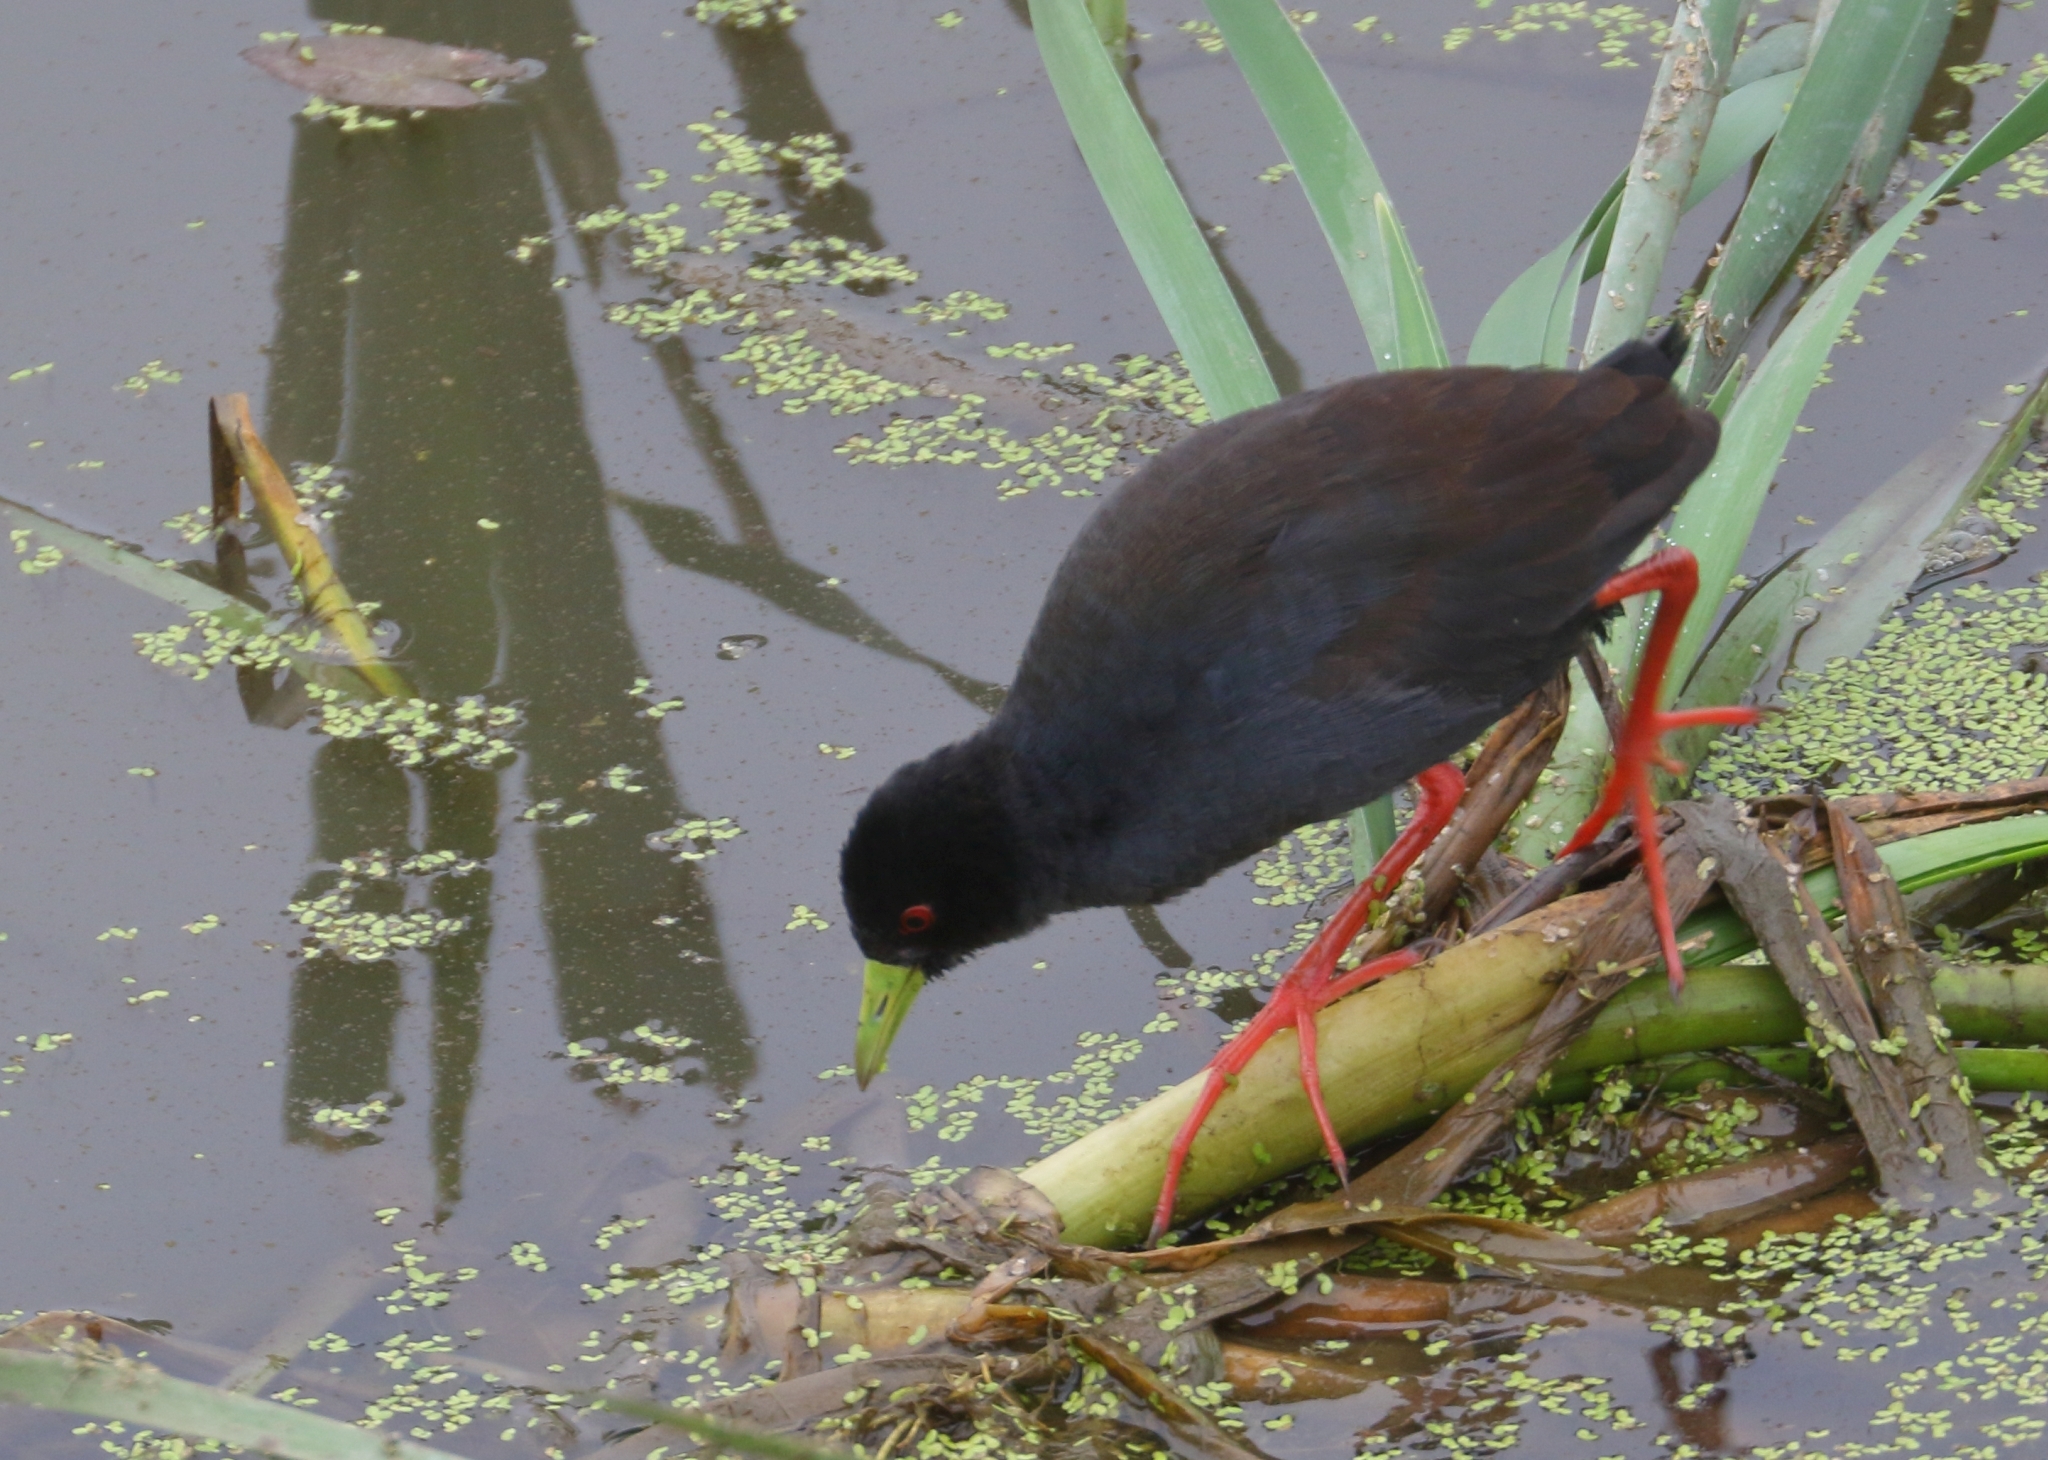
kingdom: Animalia
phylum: Chordata
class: Aves
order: Gruiformes
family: Rallidae
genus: Amaurornis
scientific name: Amaurornis flavirostra
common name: Black crake
